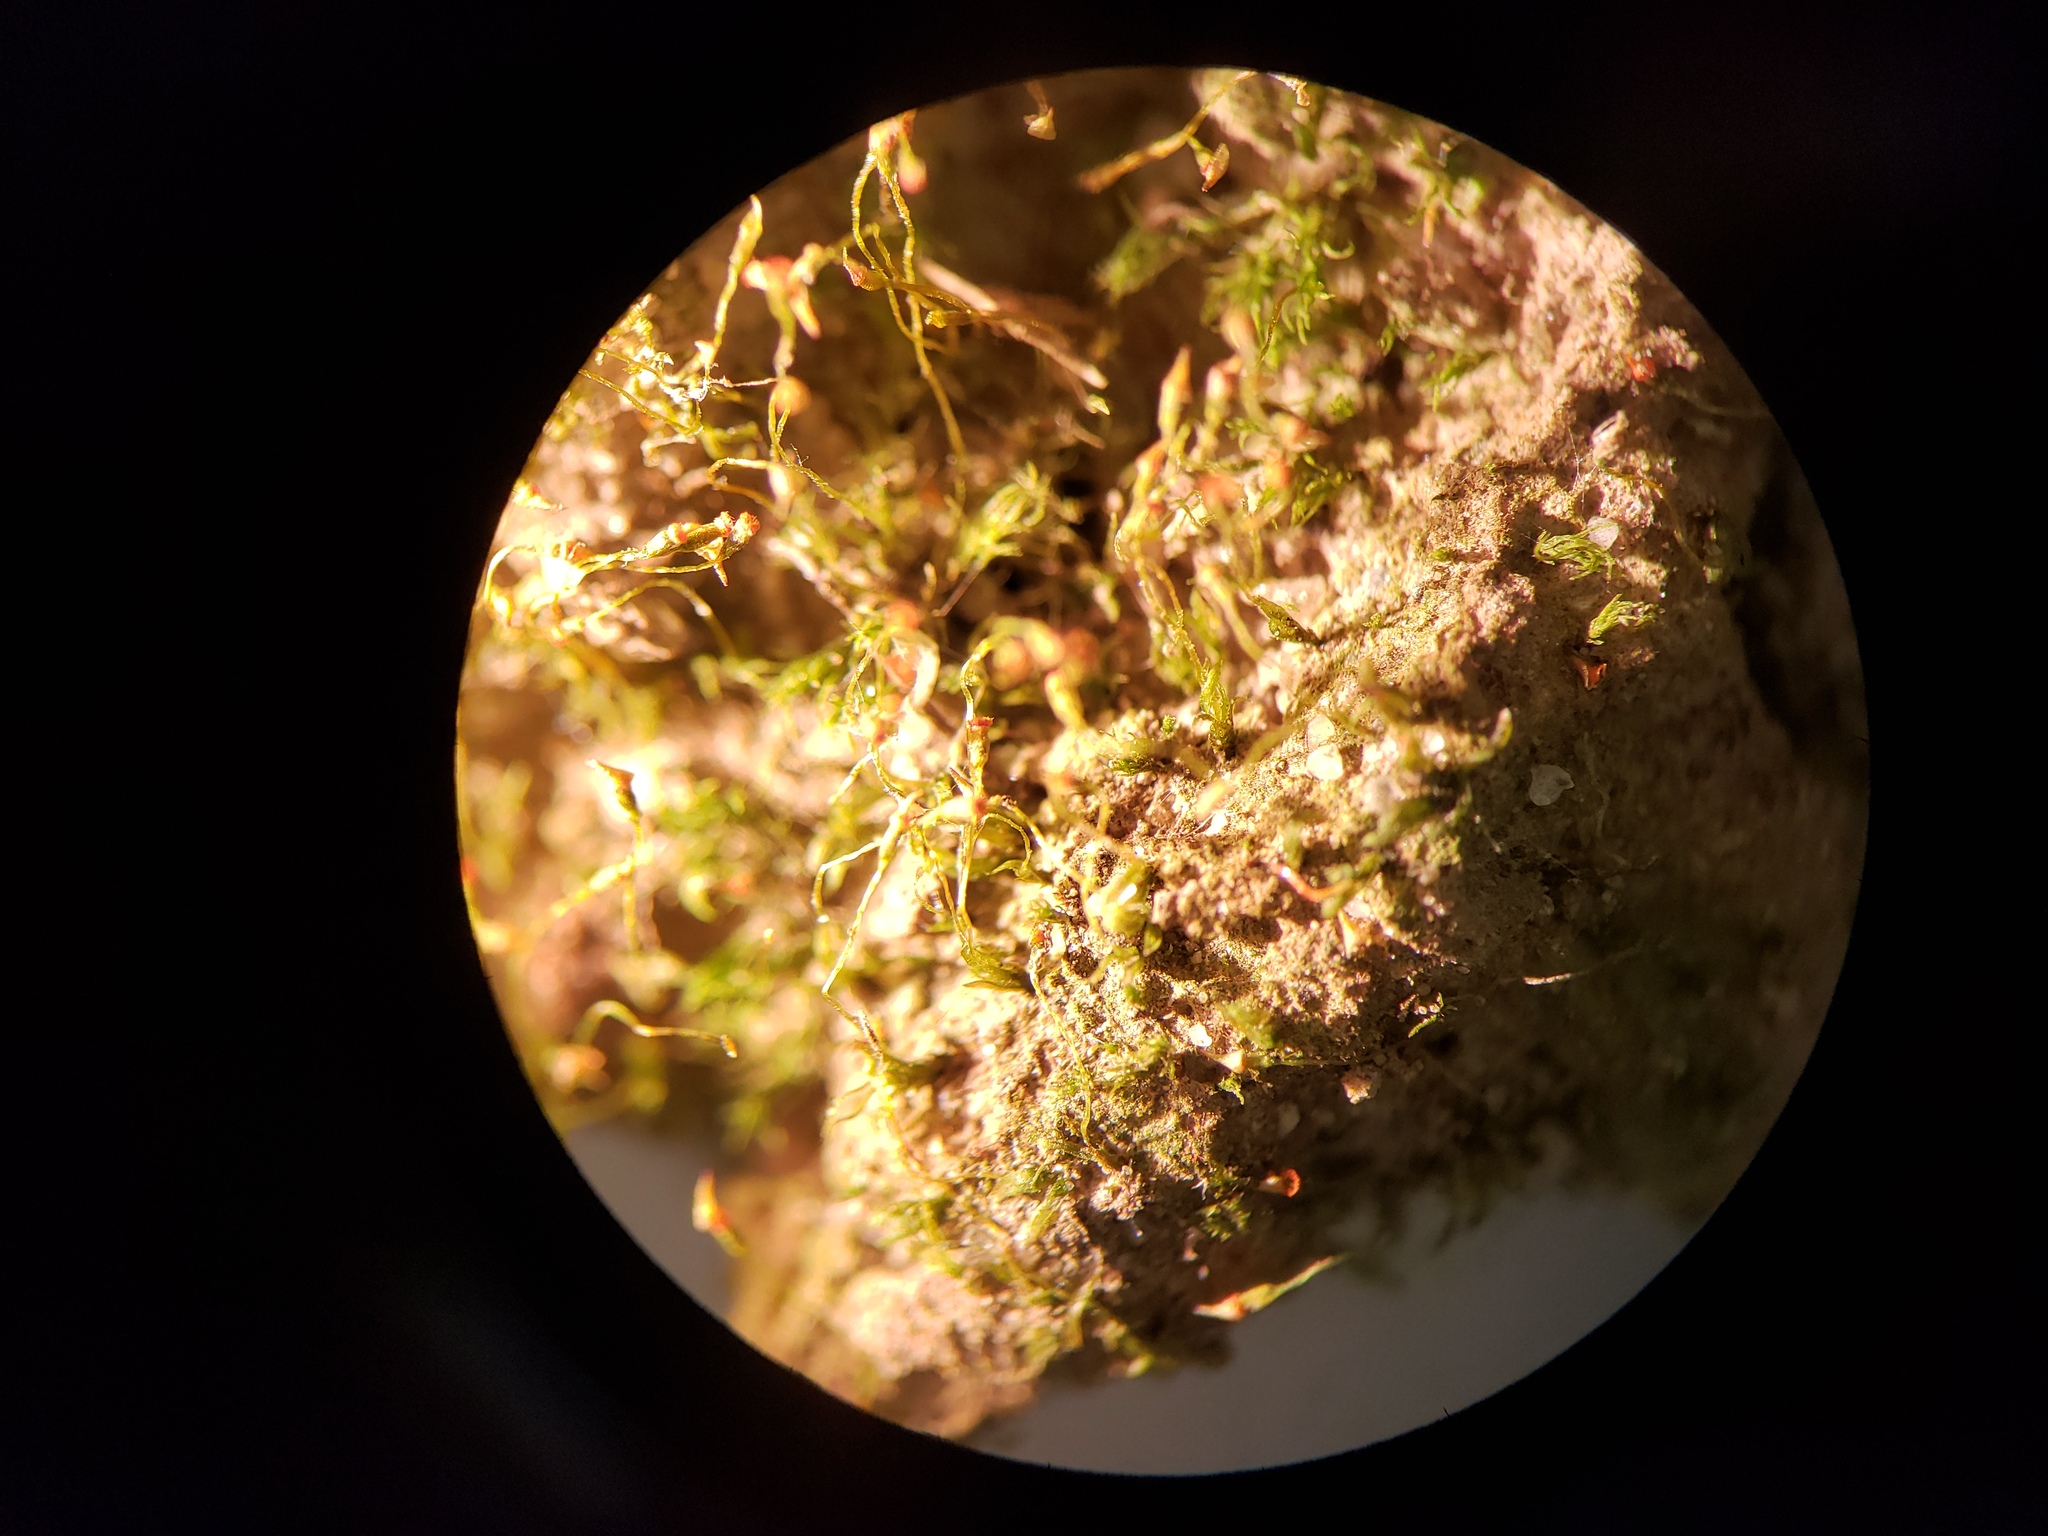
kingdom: Plantae
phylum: Bryophyta
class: Bryopsida
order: Dicranales
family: Fissidentaceae
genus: Fissidens
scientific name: Fissidens exilis
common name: Pygmy pocket moss
